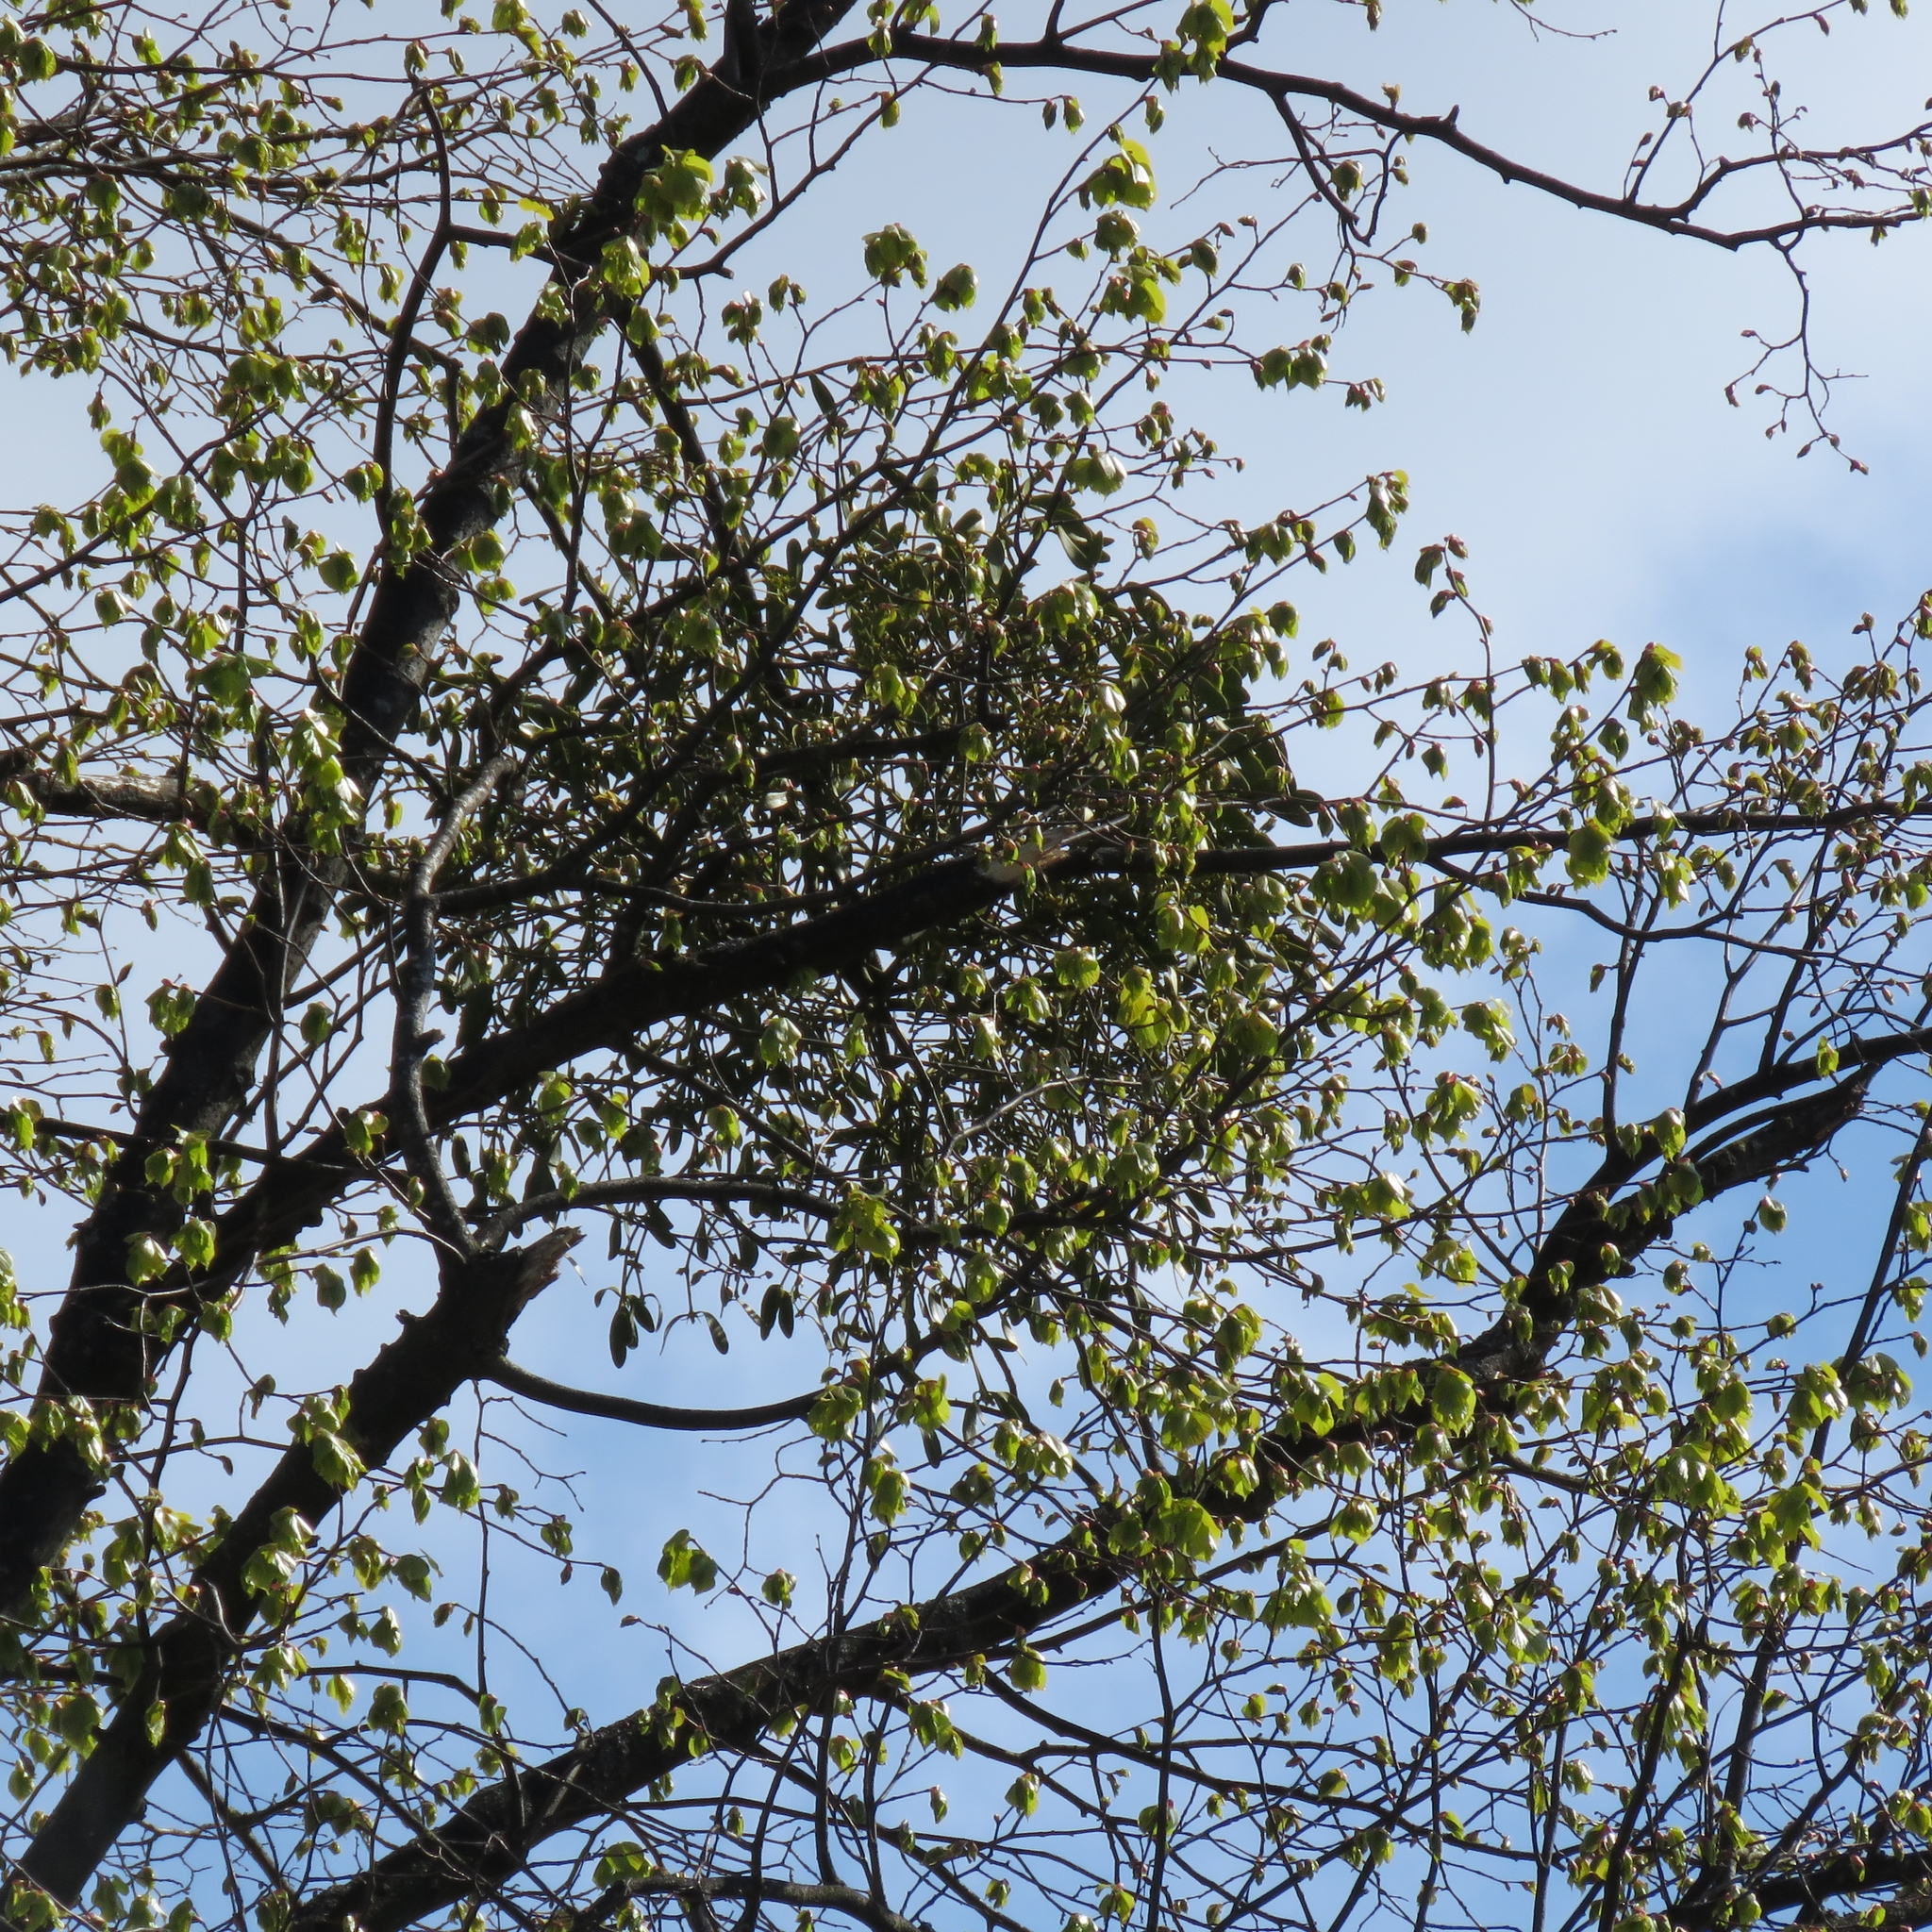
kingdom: Plantae
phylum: Tracheophyta
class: Magnoliopsida
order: Santalales
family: Viscaceae
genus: Viscum
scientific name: Viscum album
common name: Mistletoe
